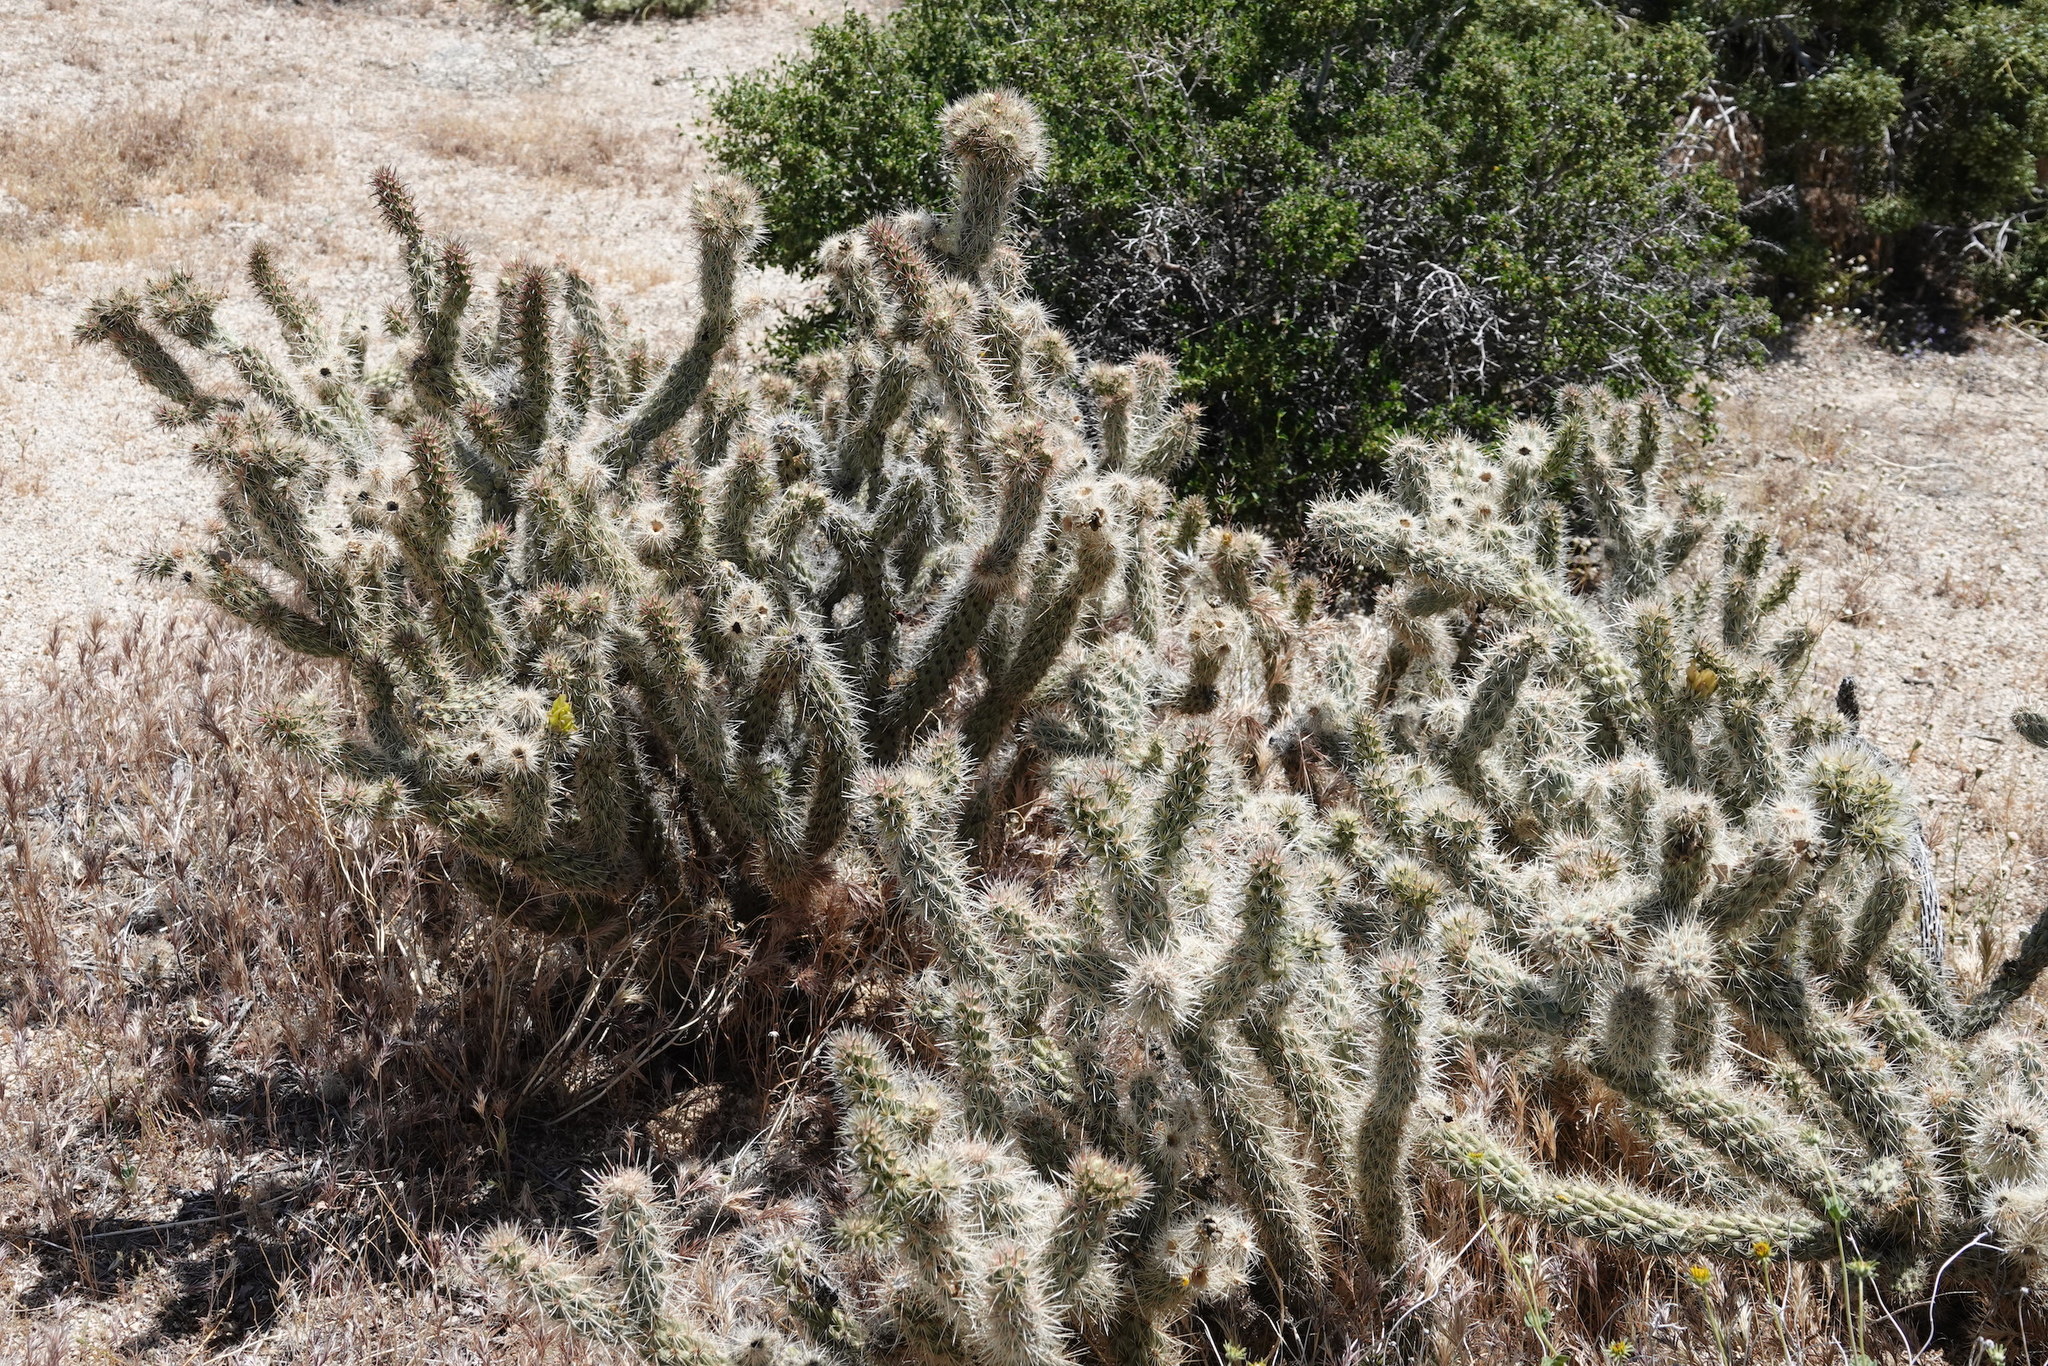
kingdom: Plantae
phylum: Tracheophyta
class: Magnoliopsida
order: Caryophyllales
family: Cactaceae
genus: Cylindropuntia
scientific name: Cylindropuntia ganderi
